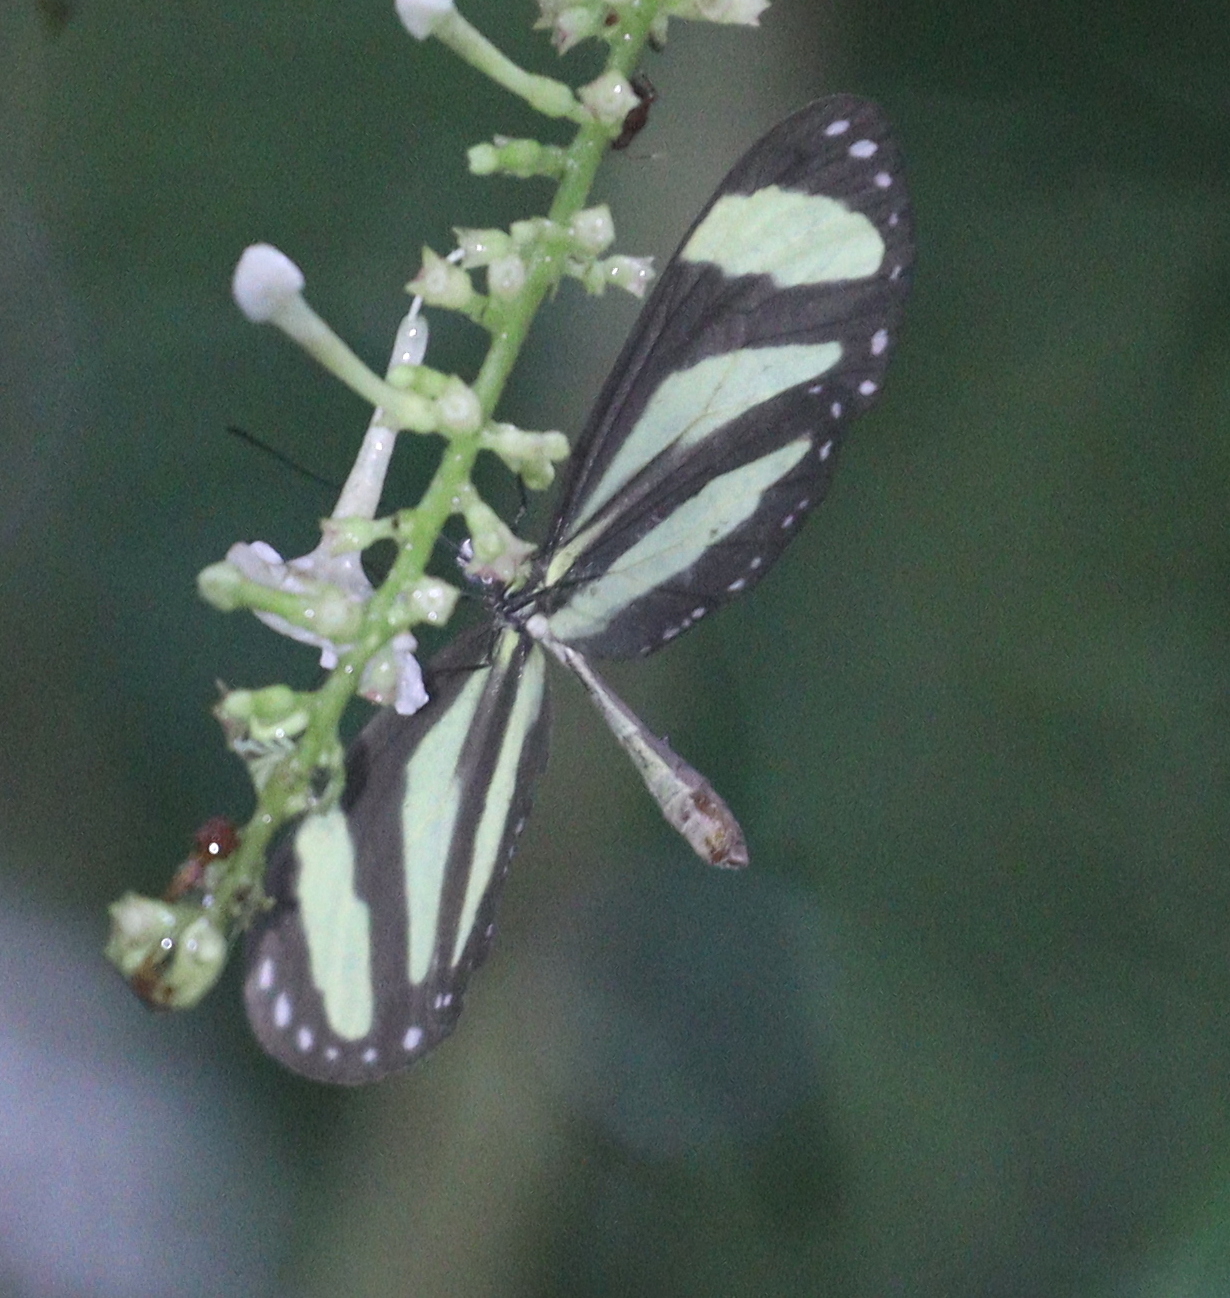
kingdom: Animalia
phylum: Arthropoda
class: Insecta
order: Lepidoptera
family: Nymphalidae
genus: Aeria
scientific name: Aeria eurimedia
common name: Banded tigerwing
